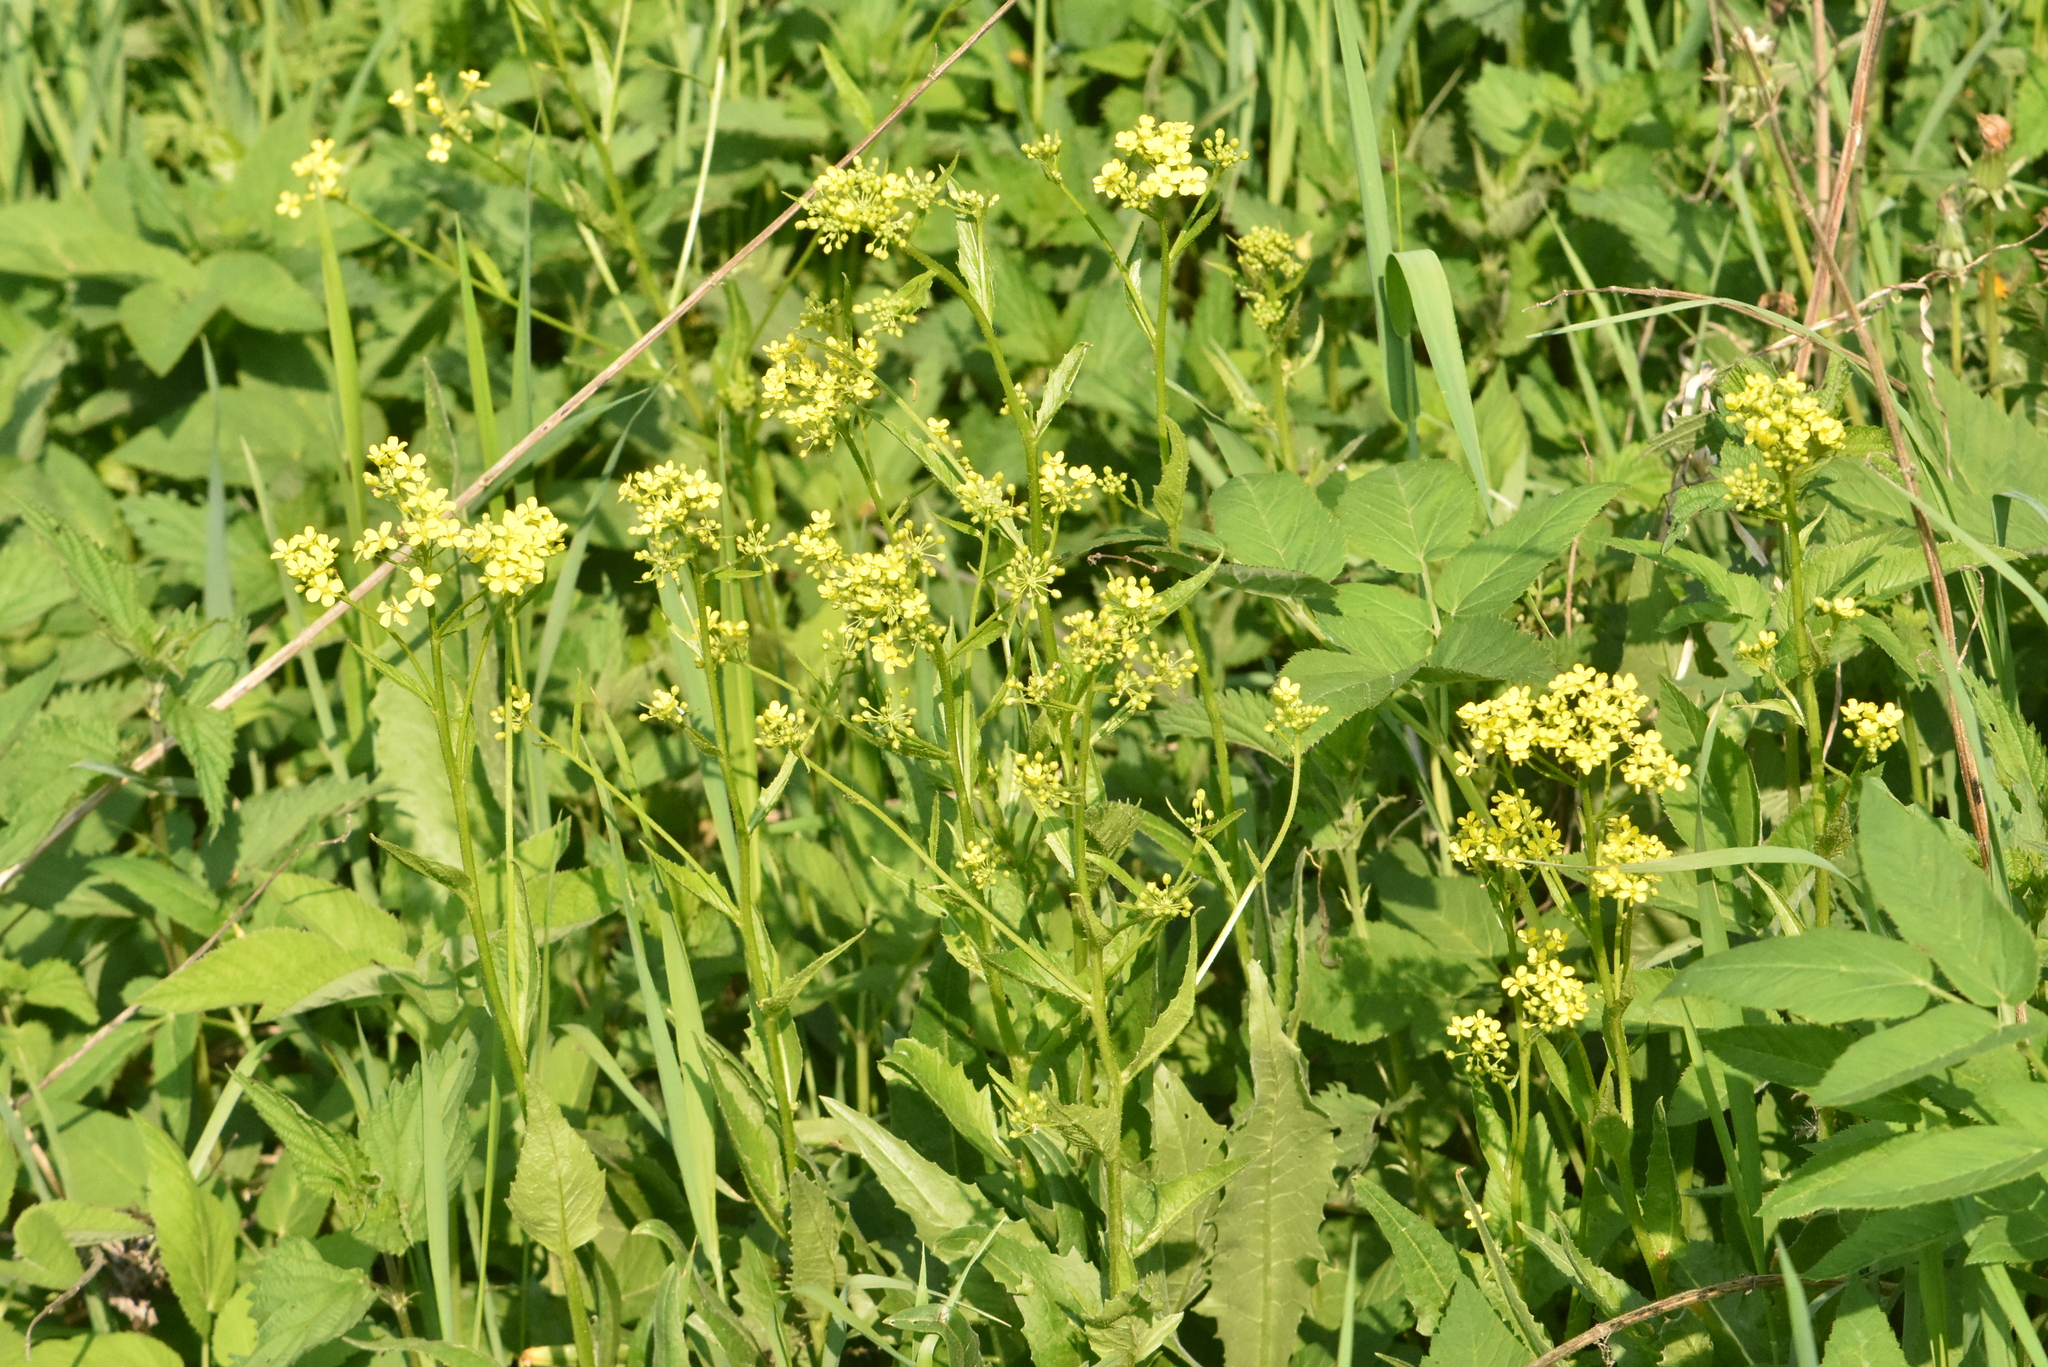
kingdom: Plantae
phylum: Tracheophyta
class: Magnoliopsida
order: Brassicales
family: Brassicaceae
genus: Bunias
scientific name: Bunias orientalis
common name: Warty-cabbage
